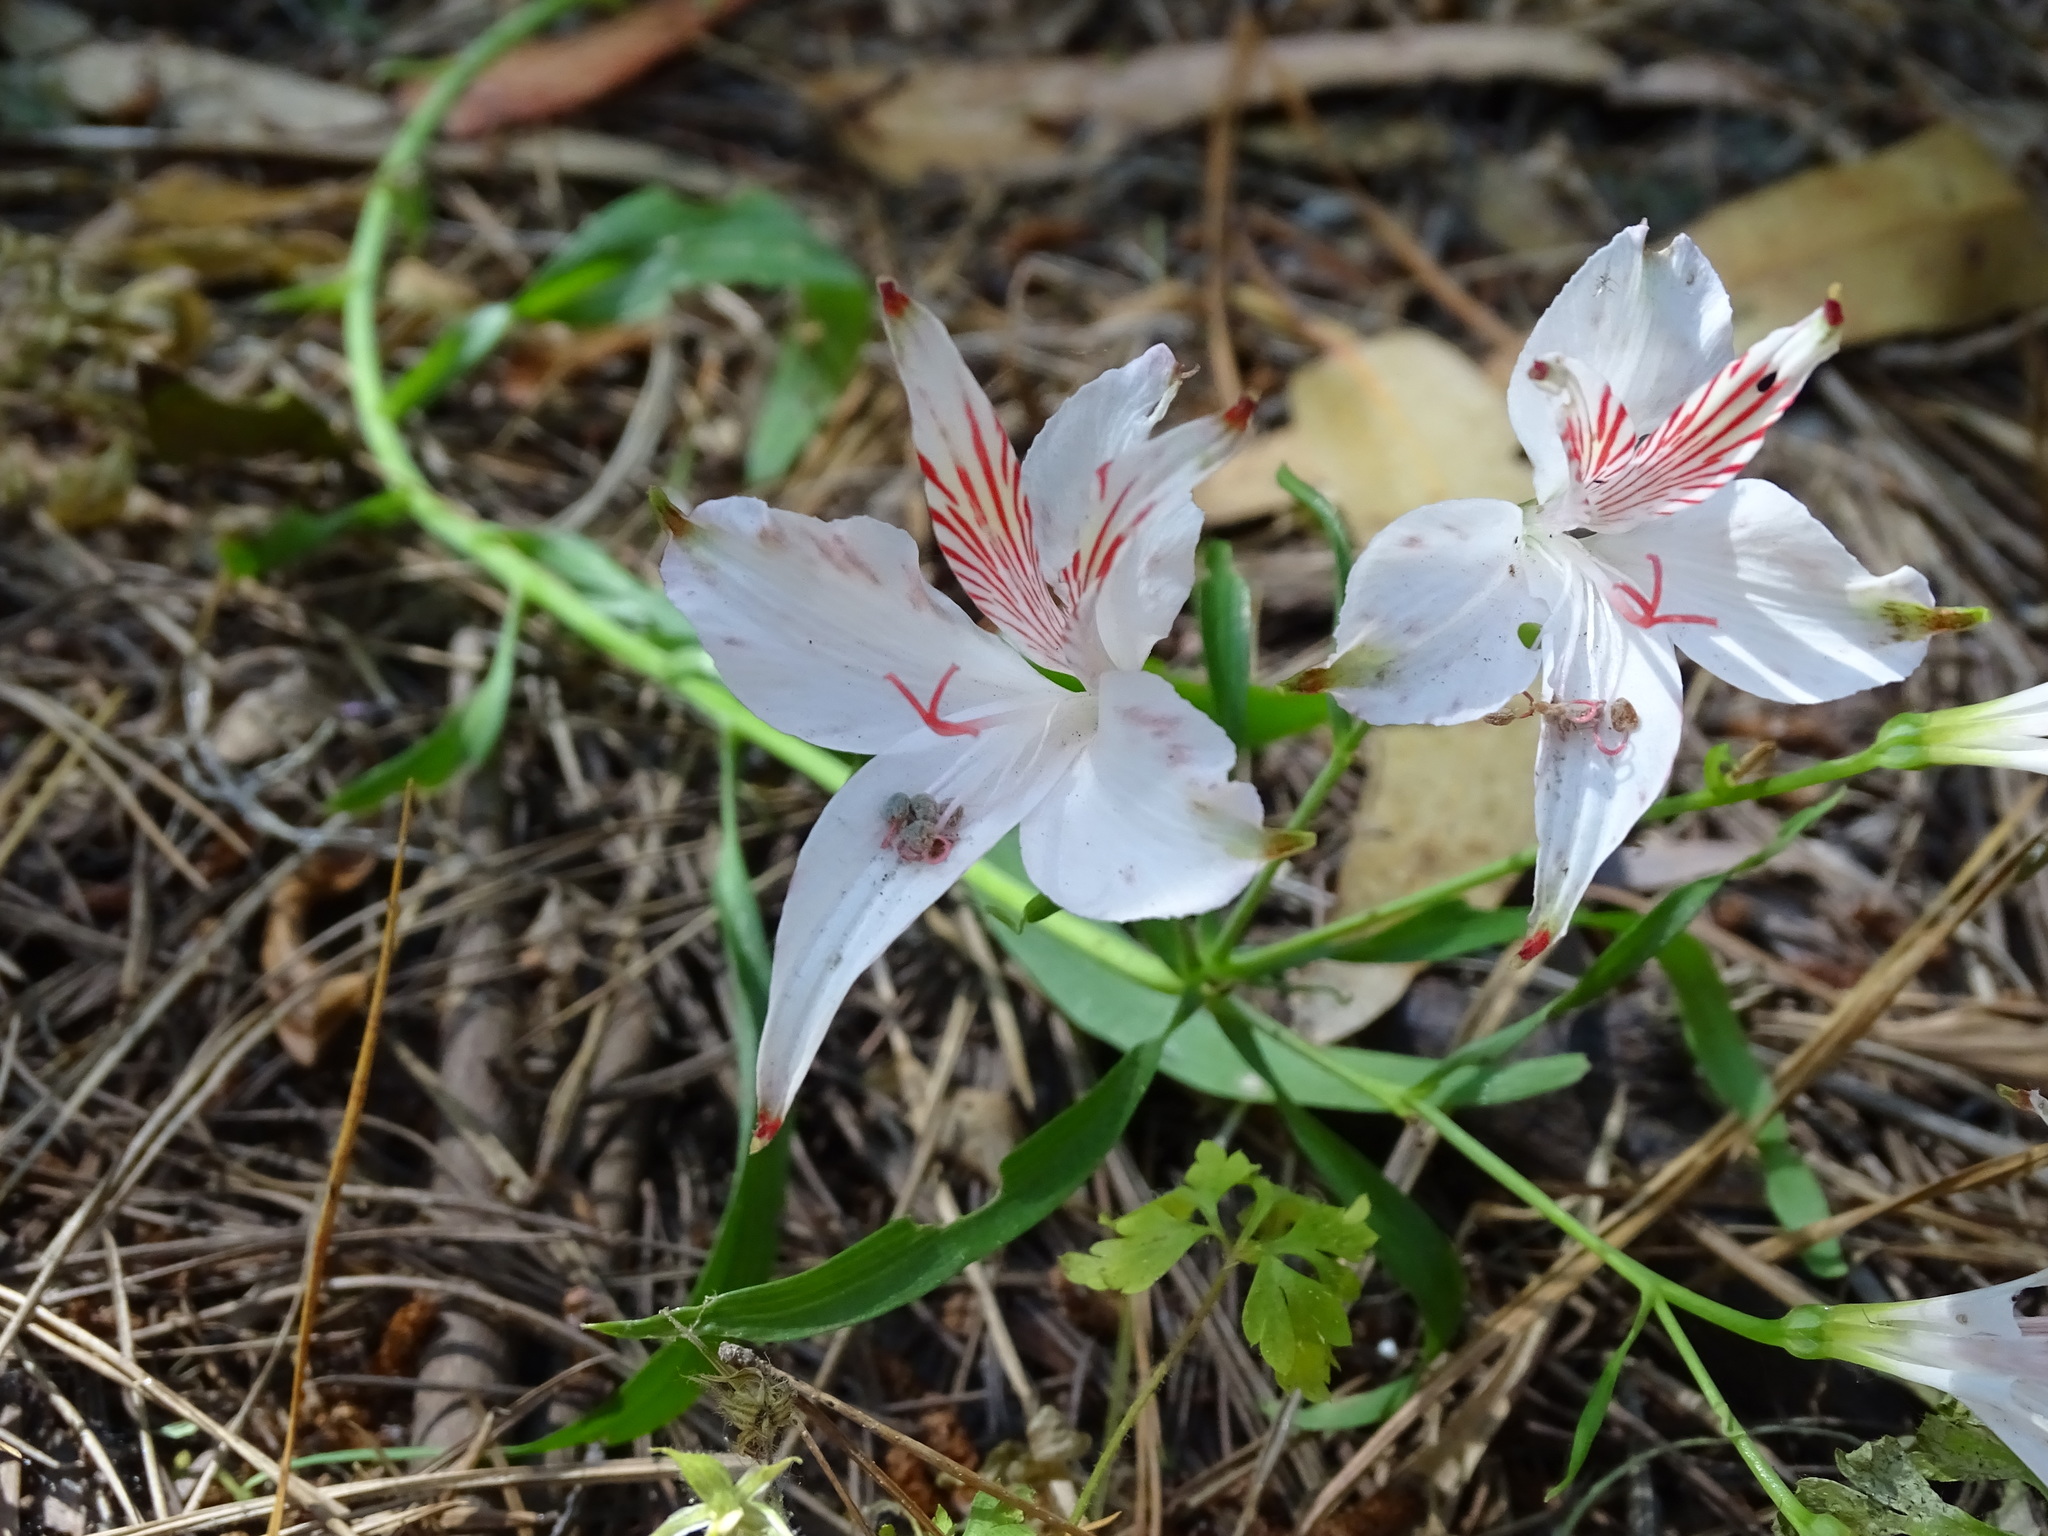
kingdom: Plantae
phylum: Tracheophyta
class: Liliopsida
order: Liliales
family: Alstroemeriaceae
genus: Alstroemeria
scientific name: Alstroemeria ligtu
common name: St. martin's-flower
